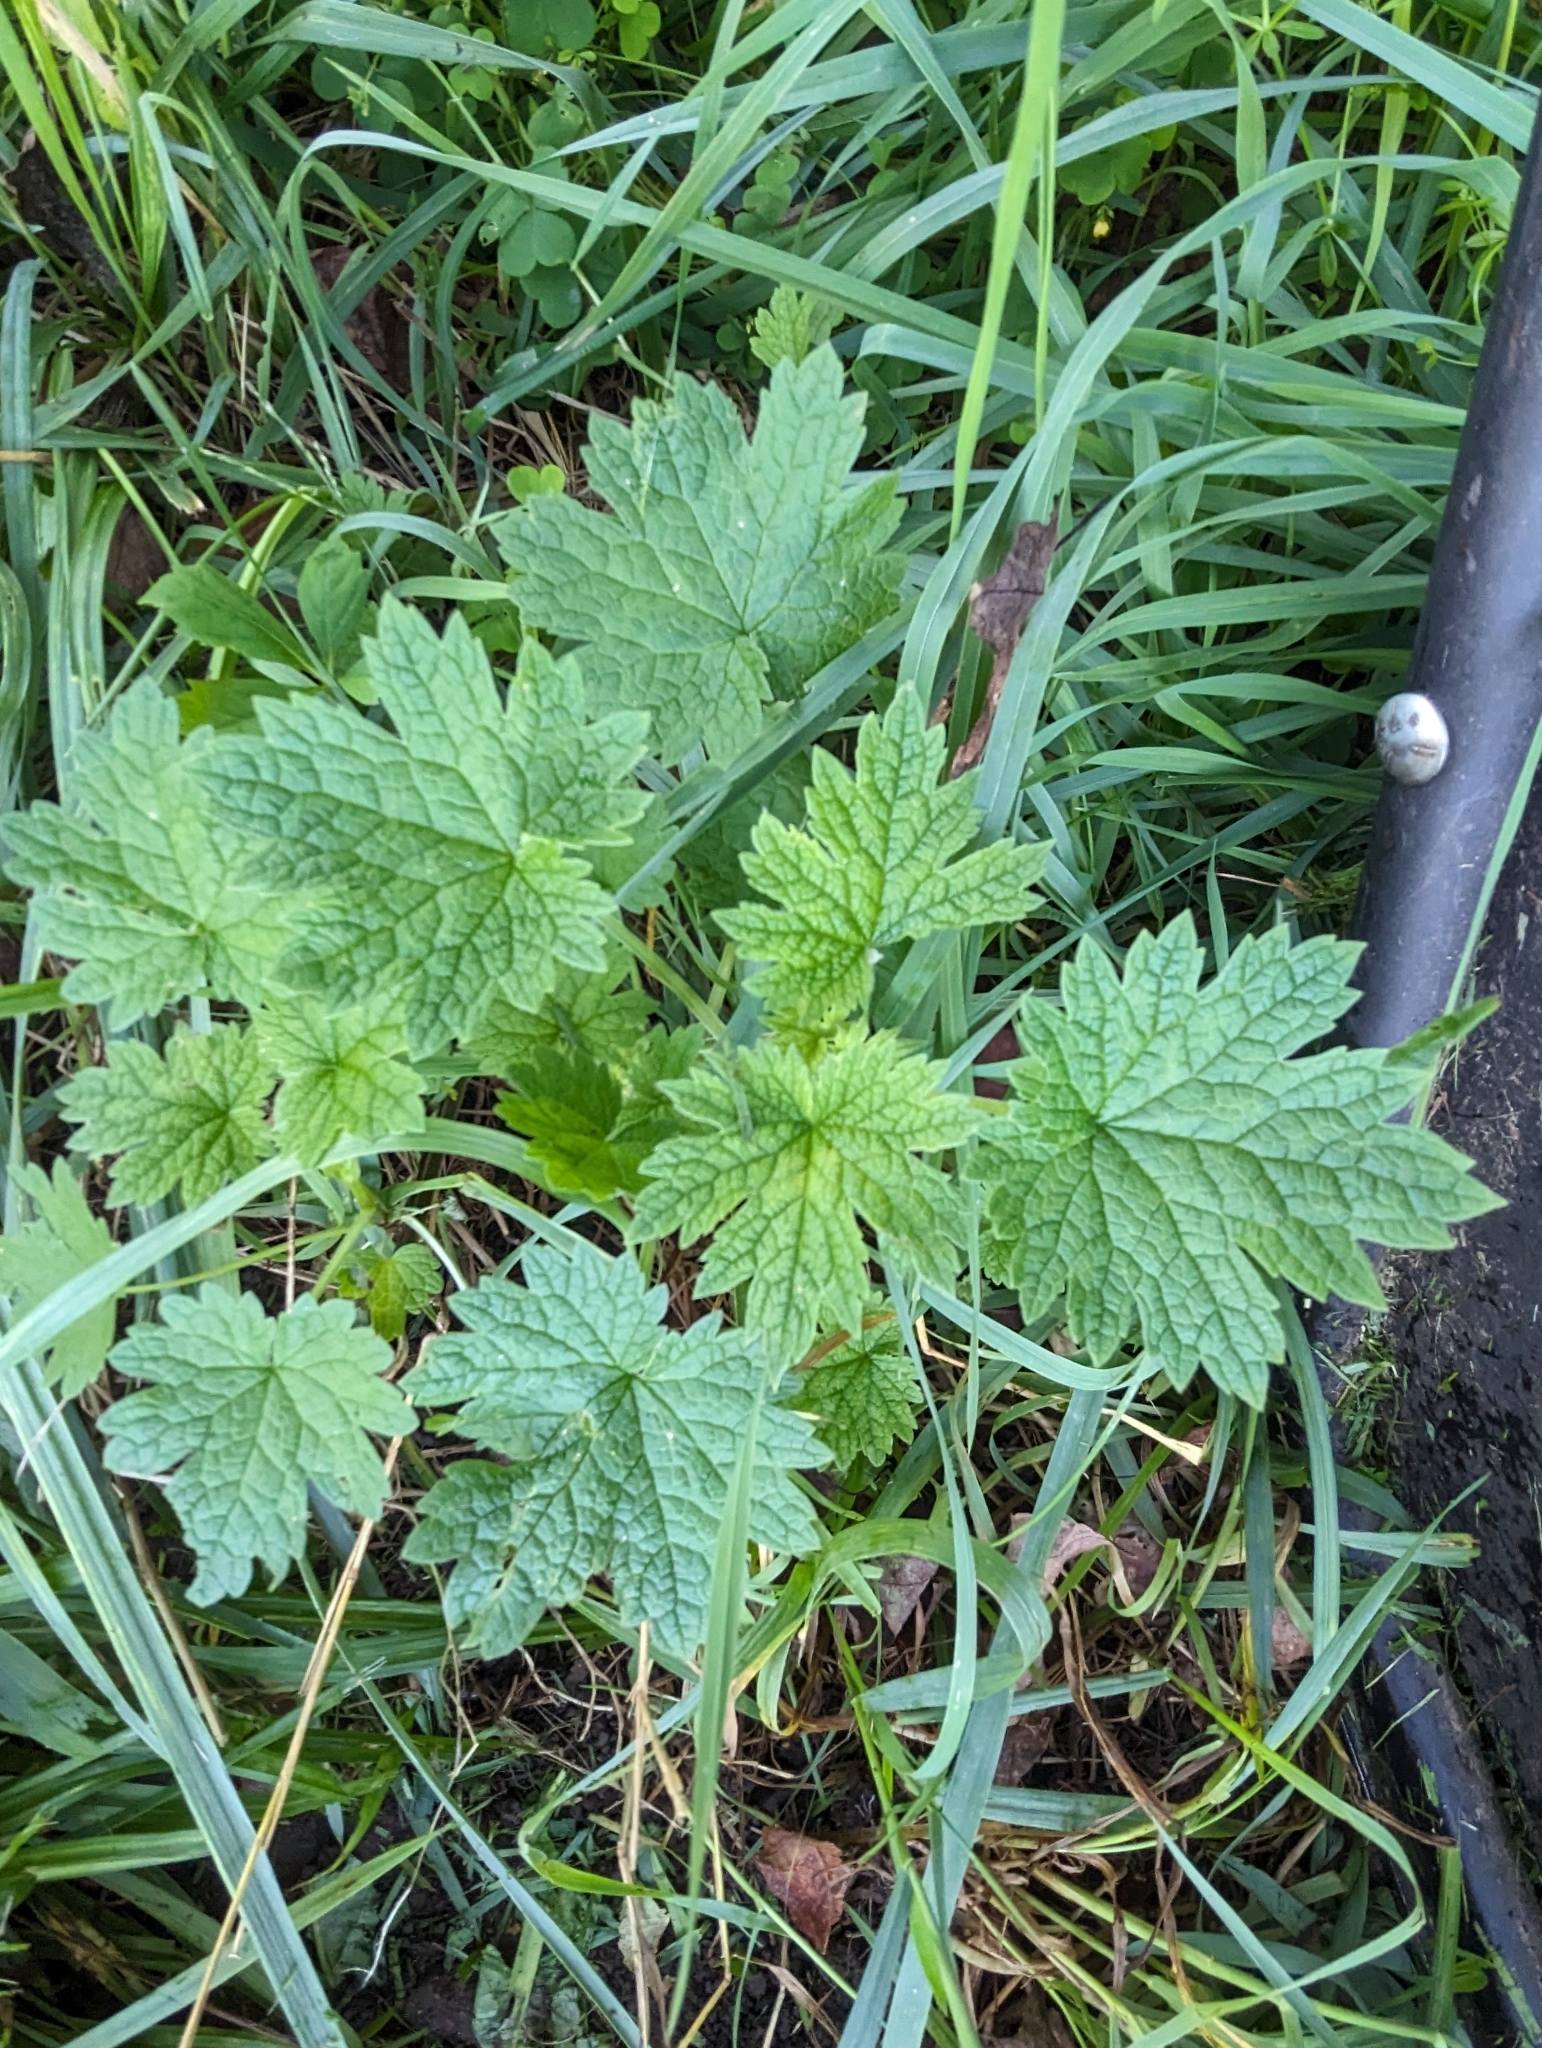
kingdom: Plantae
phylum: Tracheophyta
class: Magnoliopsida
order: Lamiales
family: Lamiaceae
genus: Leonurus
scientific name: Leonurus cardiaca
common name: Motherwort
